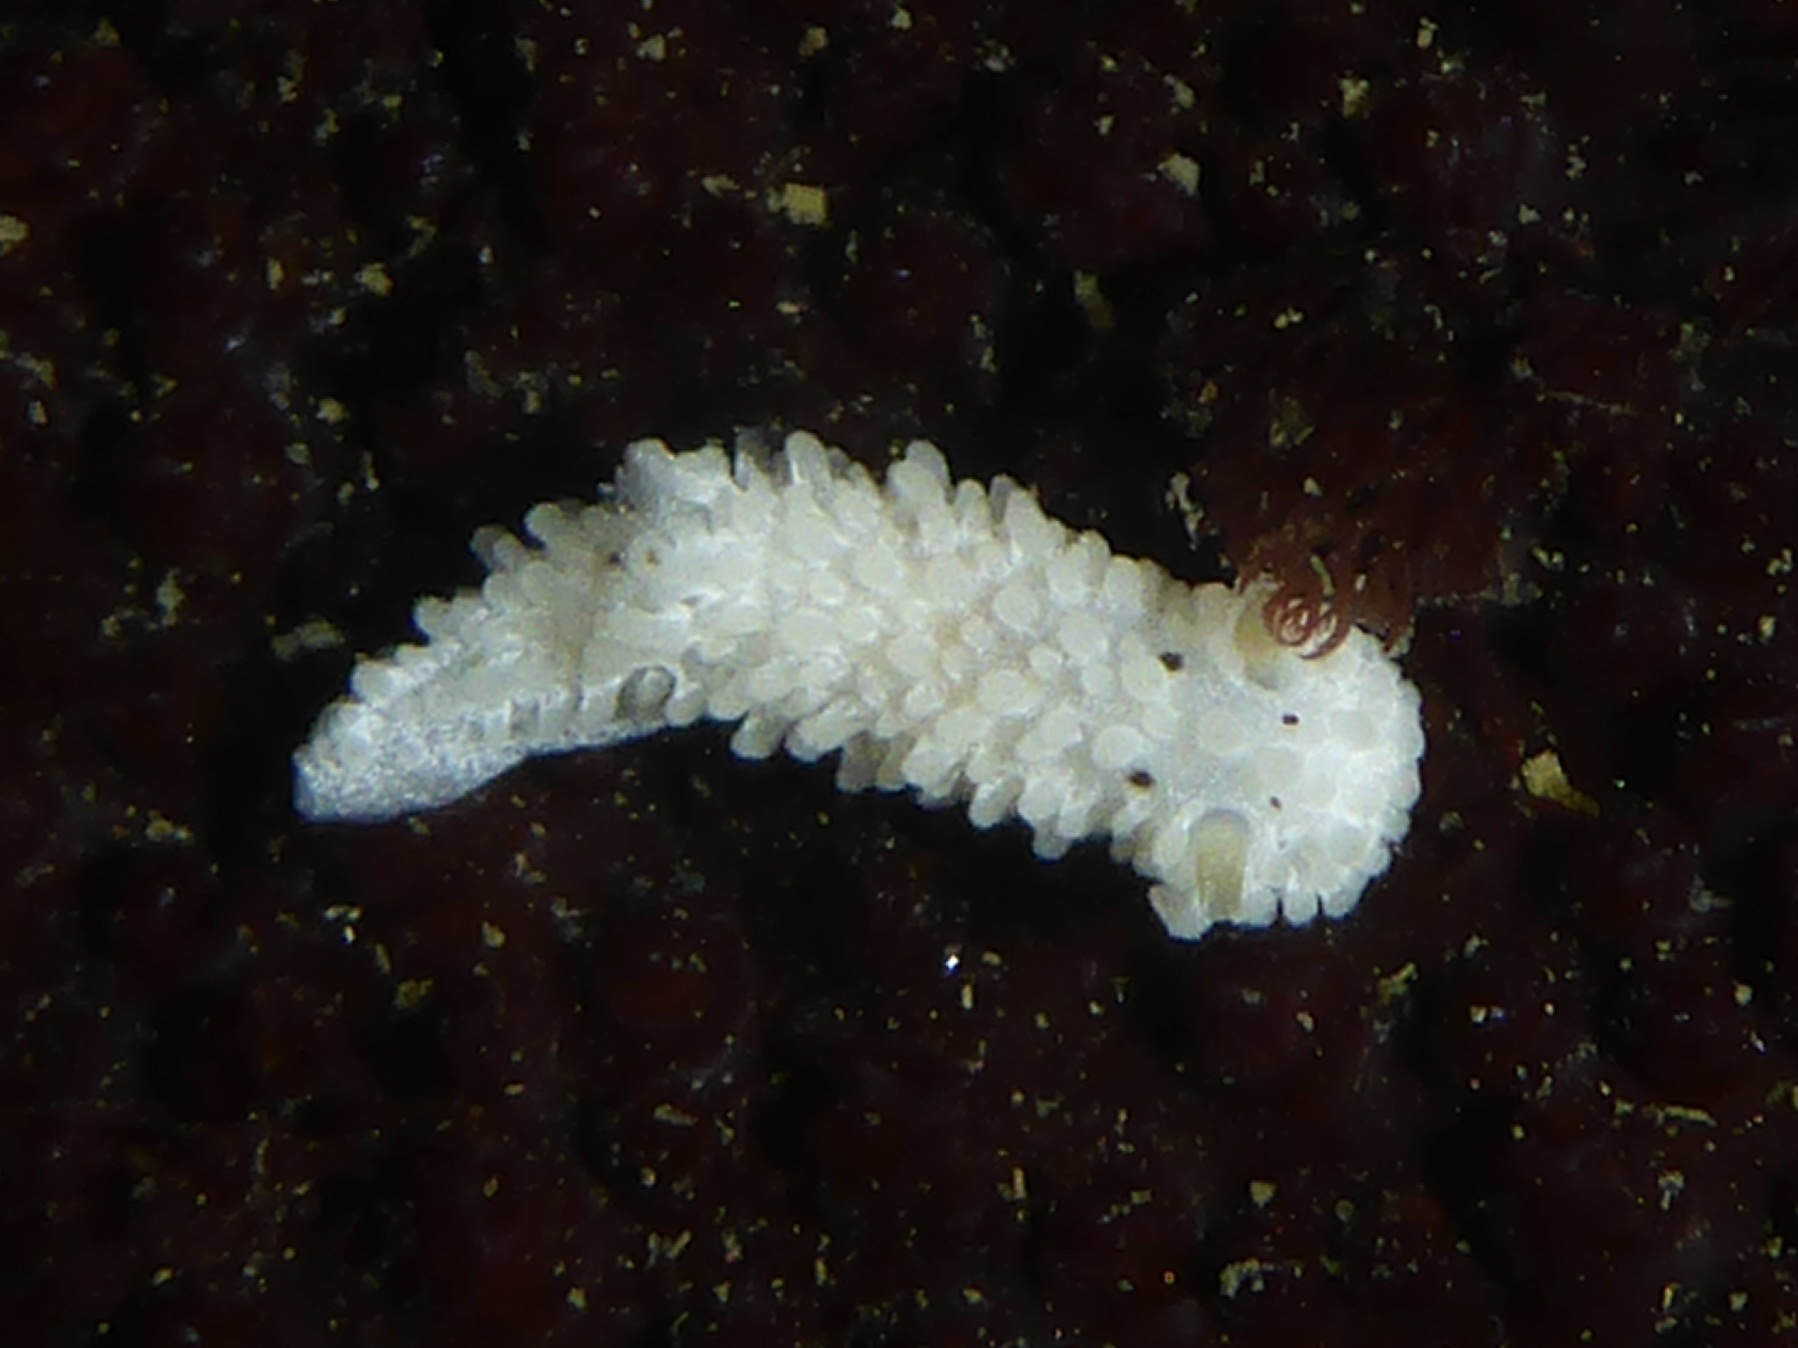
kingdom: Animalia
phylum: Mollusca
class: Gastropoda
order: Nudibranchia
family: Aegiridae
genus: Aegires
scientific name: Aegires albopunctatus
